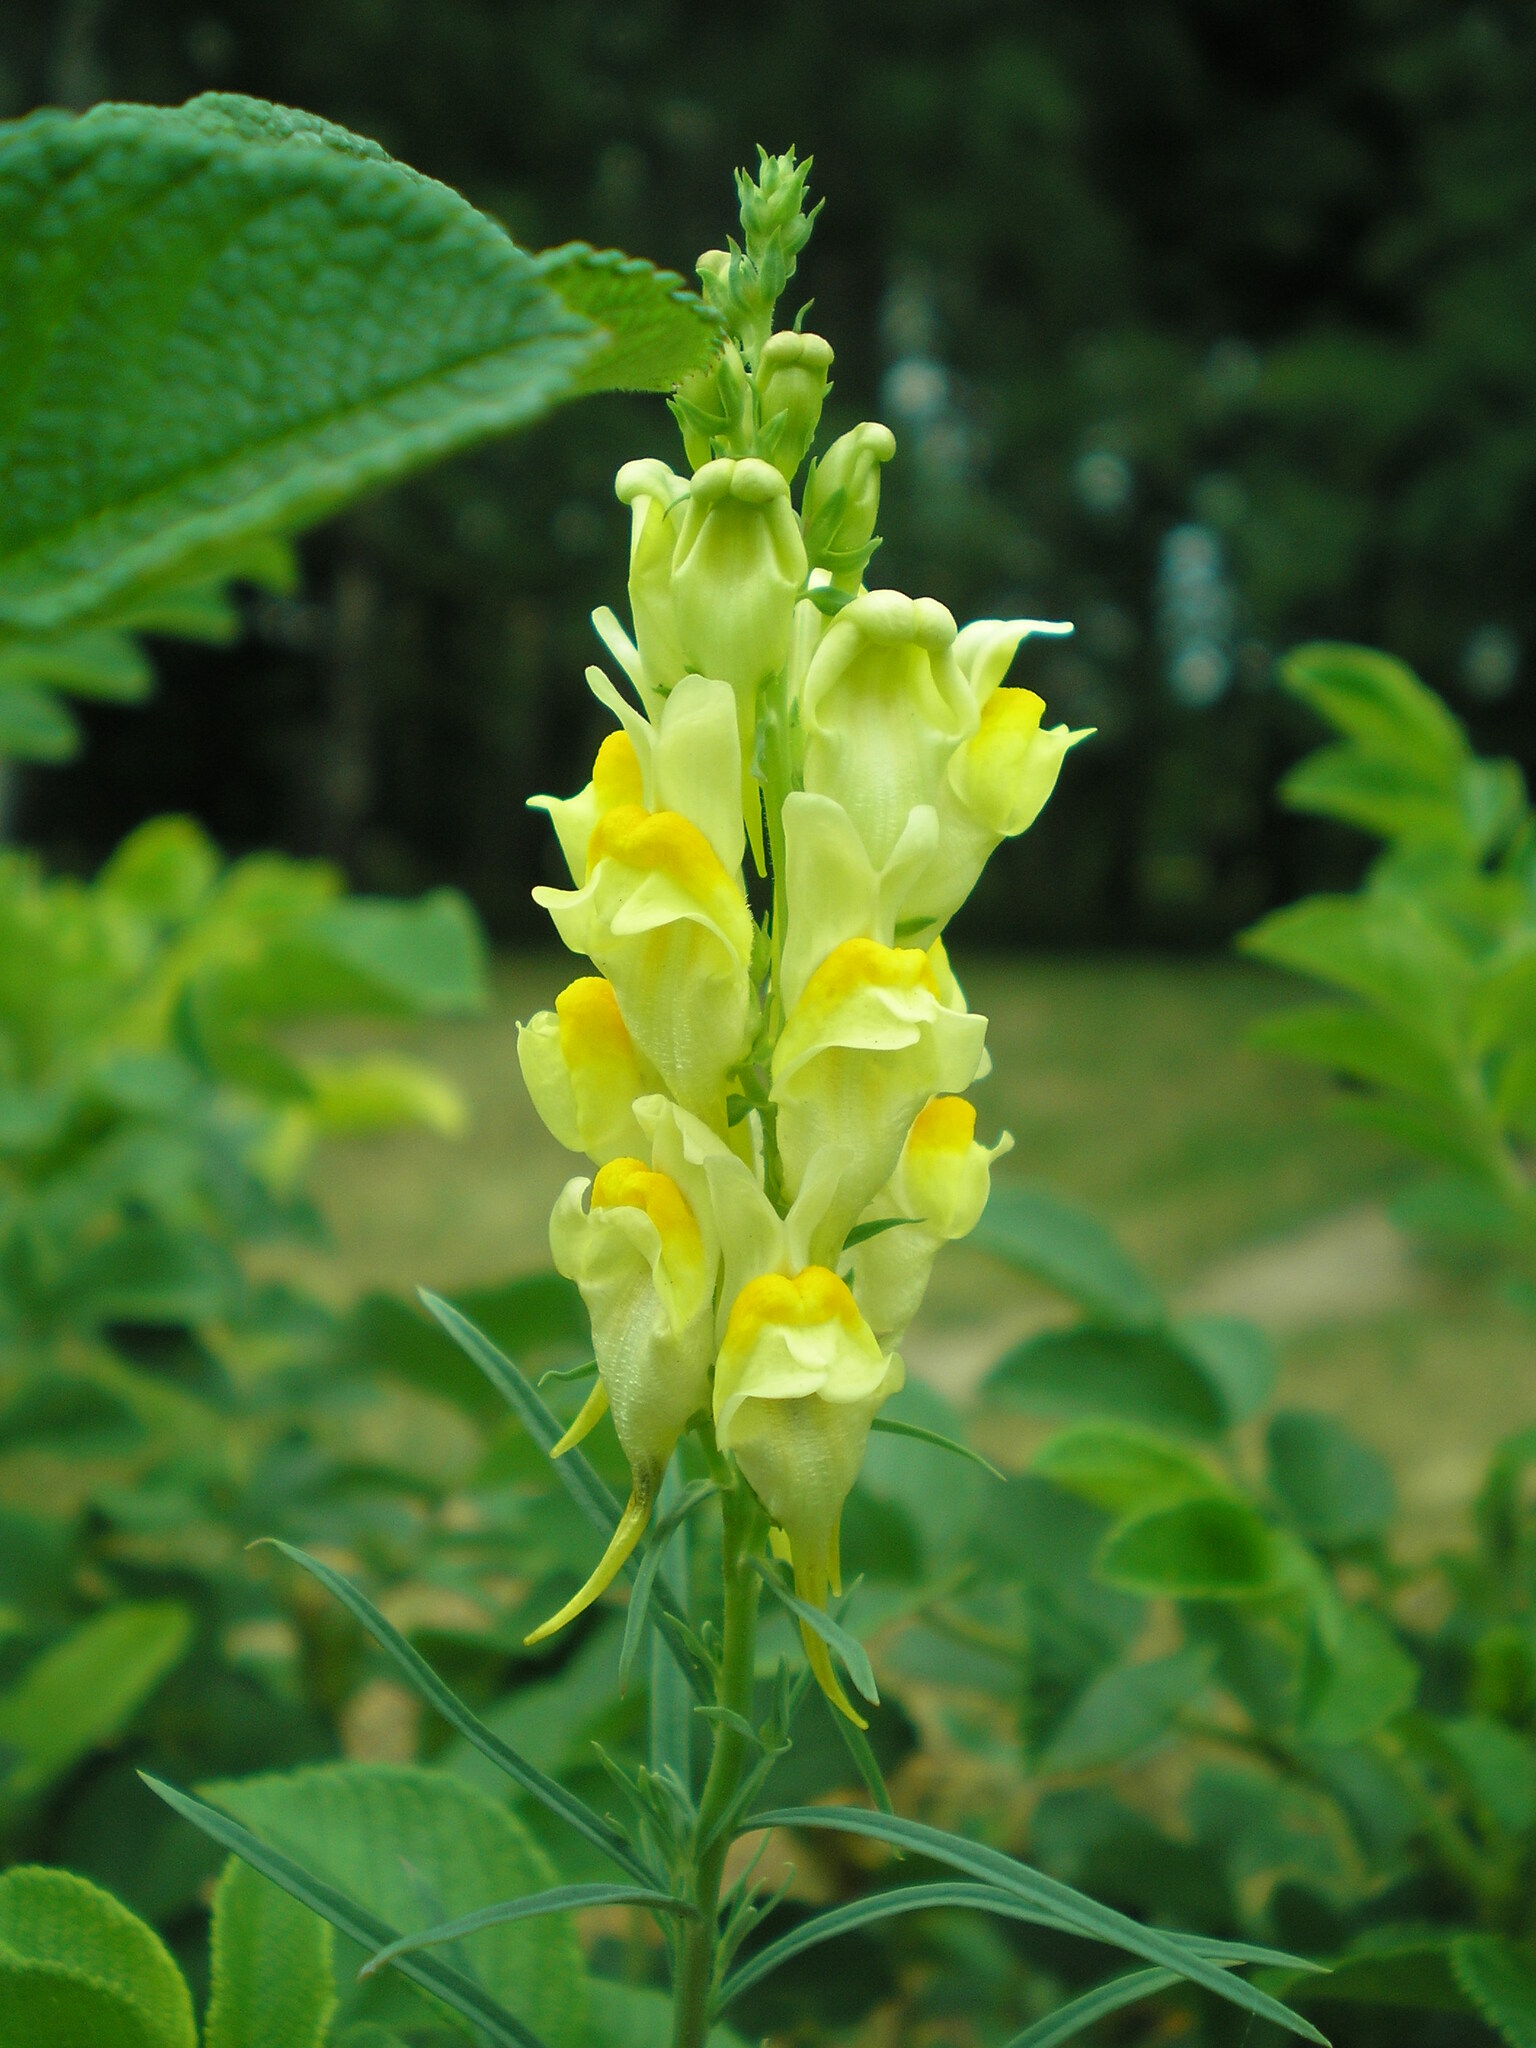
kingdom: Plantae
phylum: Tracheophyta
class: Magnoliopsida
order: Lamiales
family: Plantaginaceae
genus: Linaria
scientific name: Linaria vulgaris
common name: Butter and eggs
